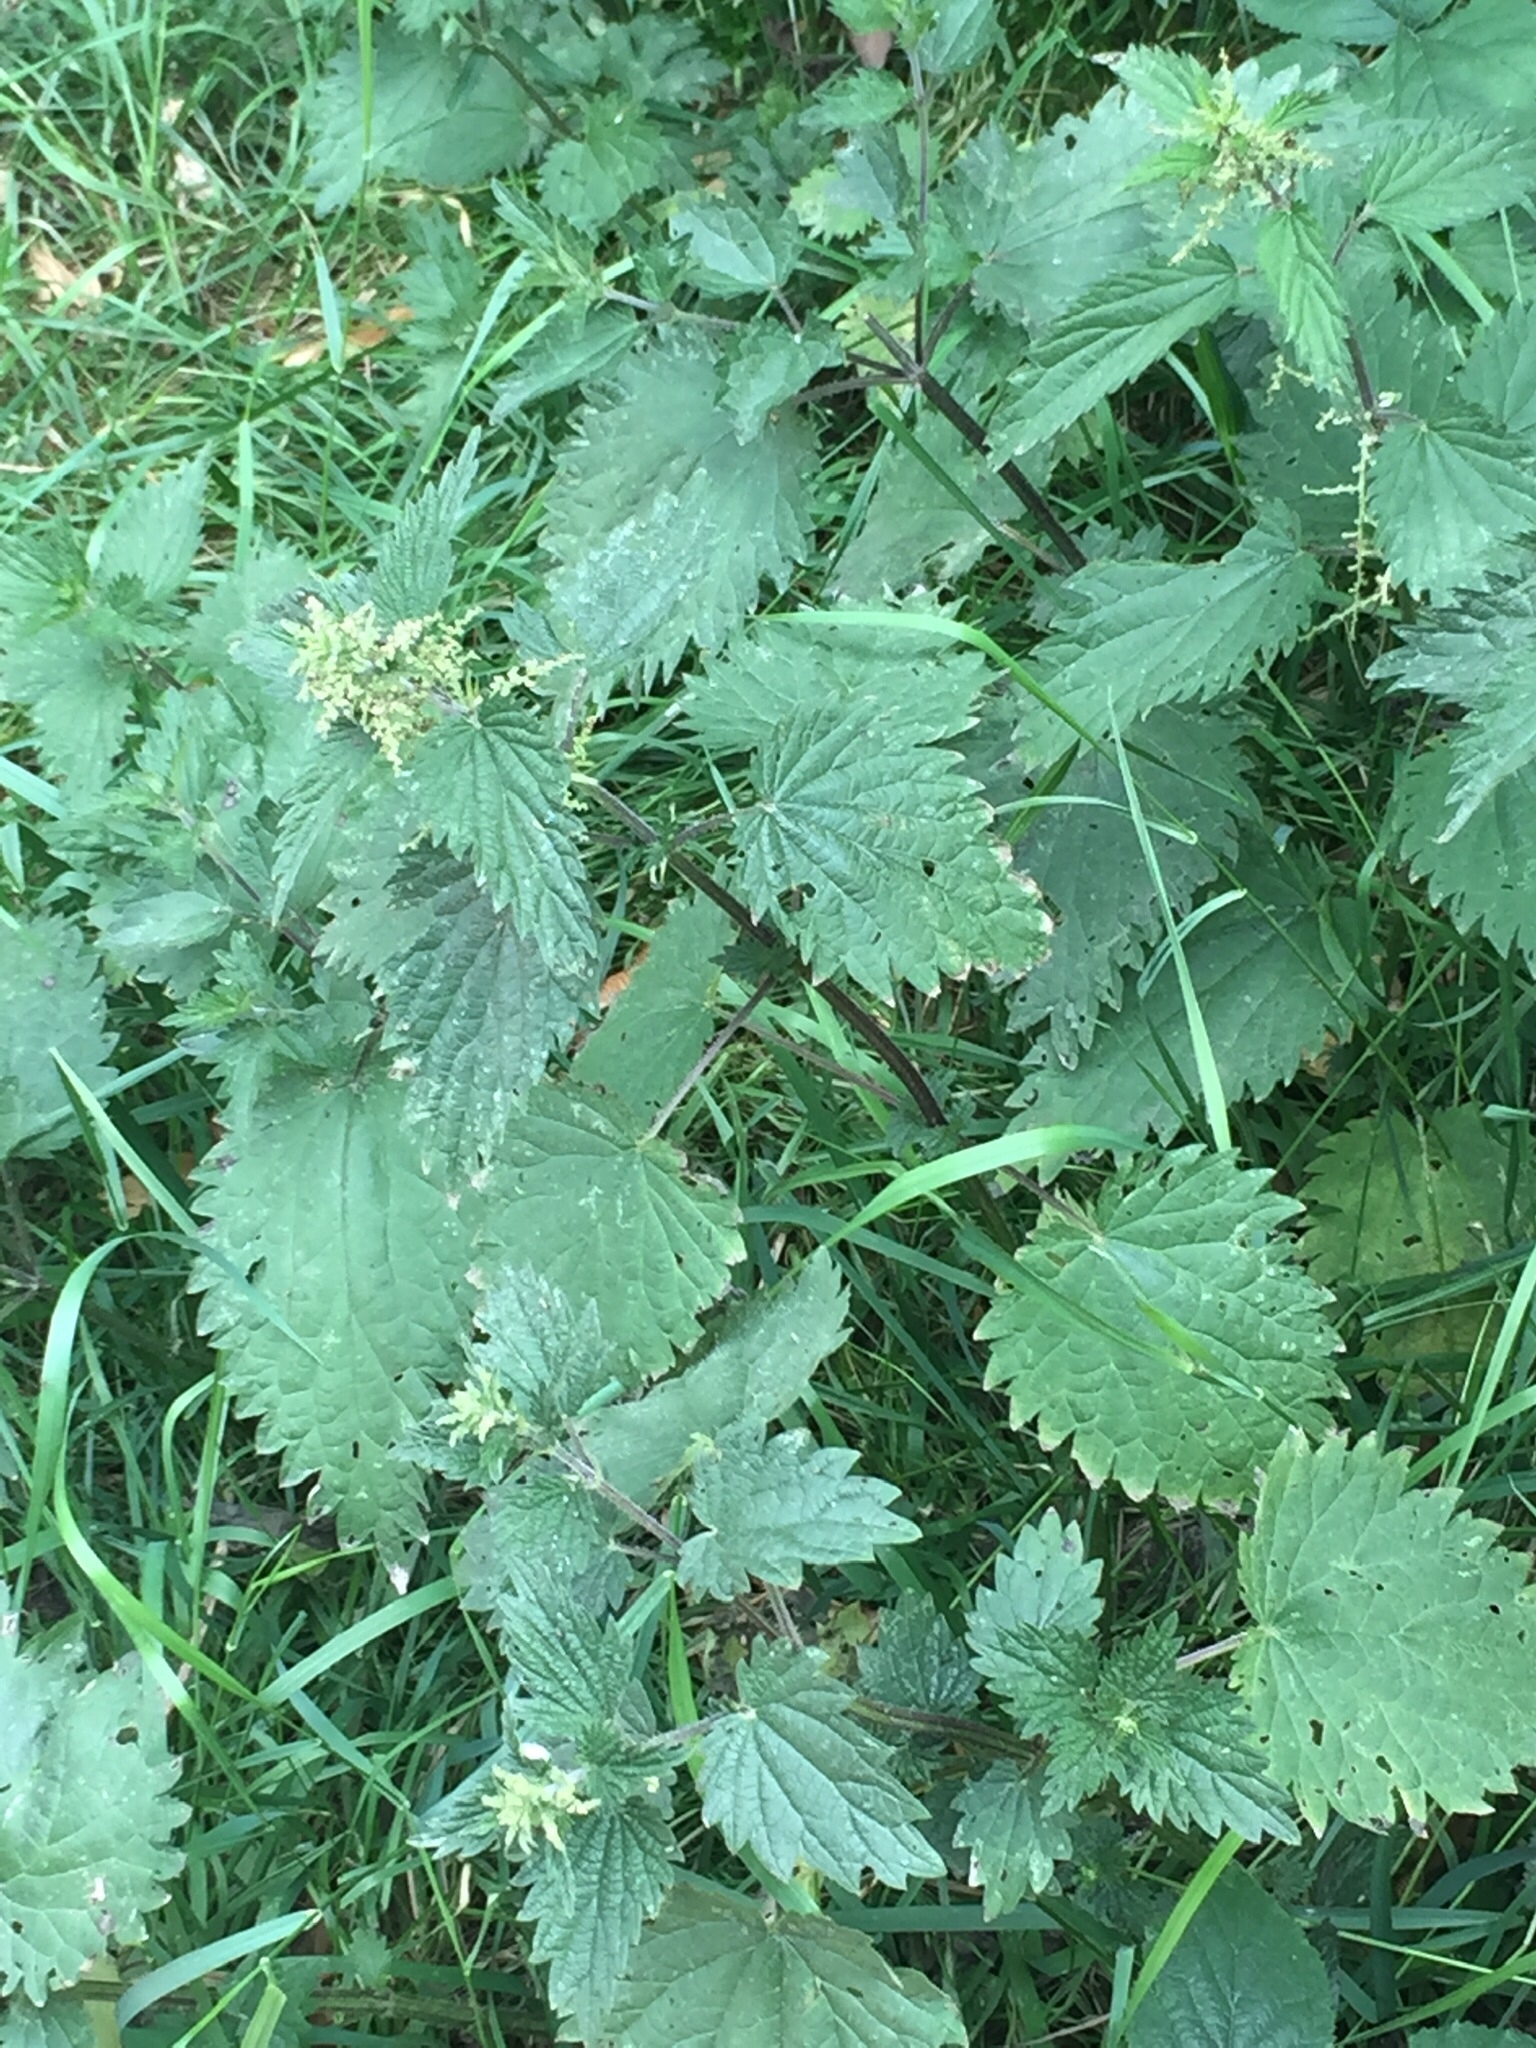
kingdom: Plantae
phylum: Tracheophyta
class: Magnoliopsida
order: Rosales
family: Urticaceae
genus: Urtica
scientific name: Urtica dioica
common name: Common nettle
